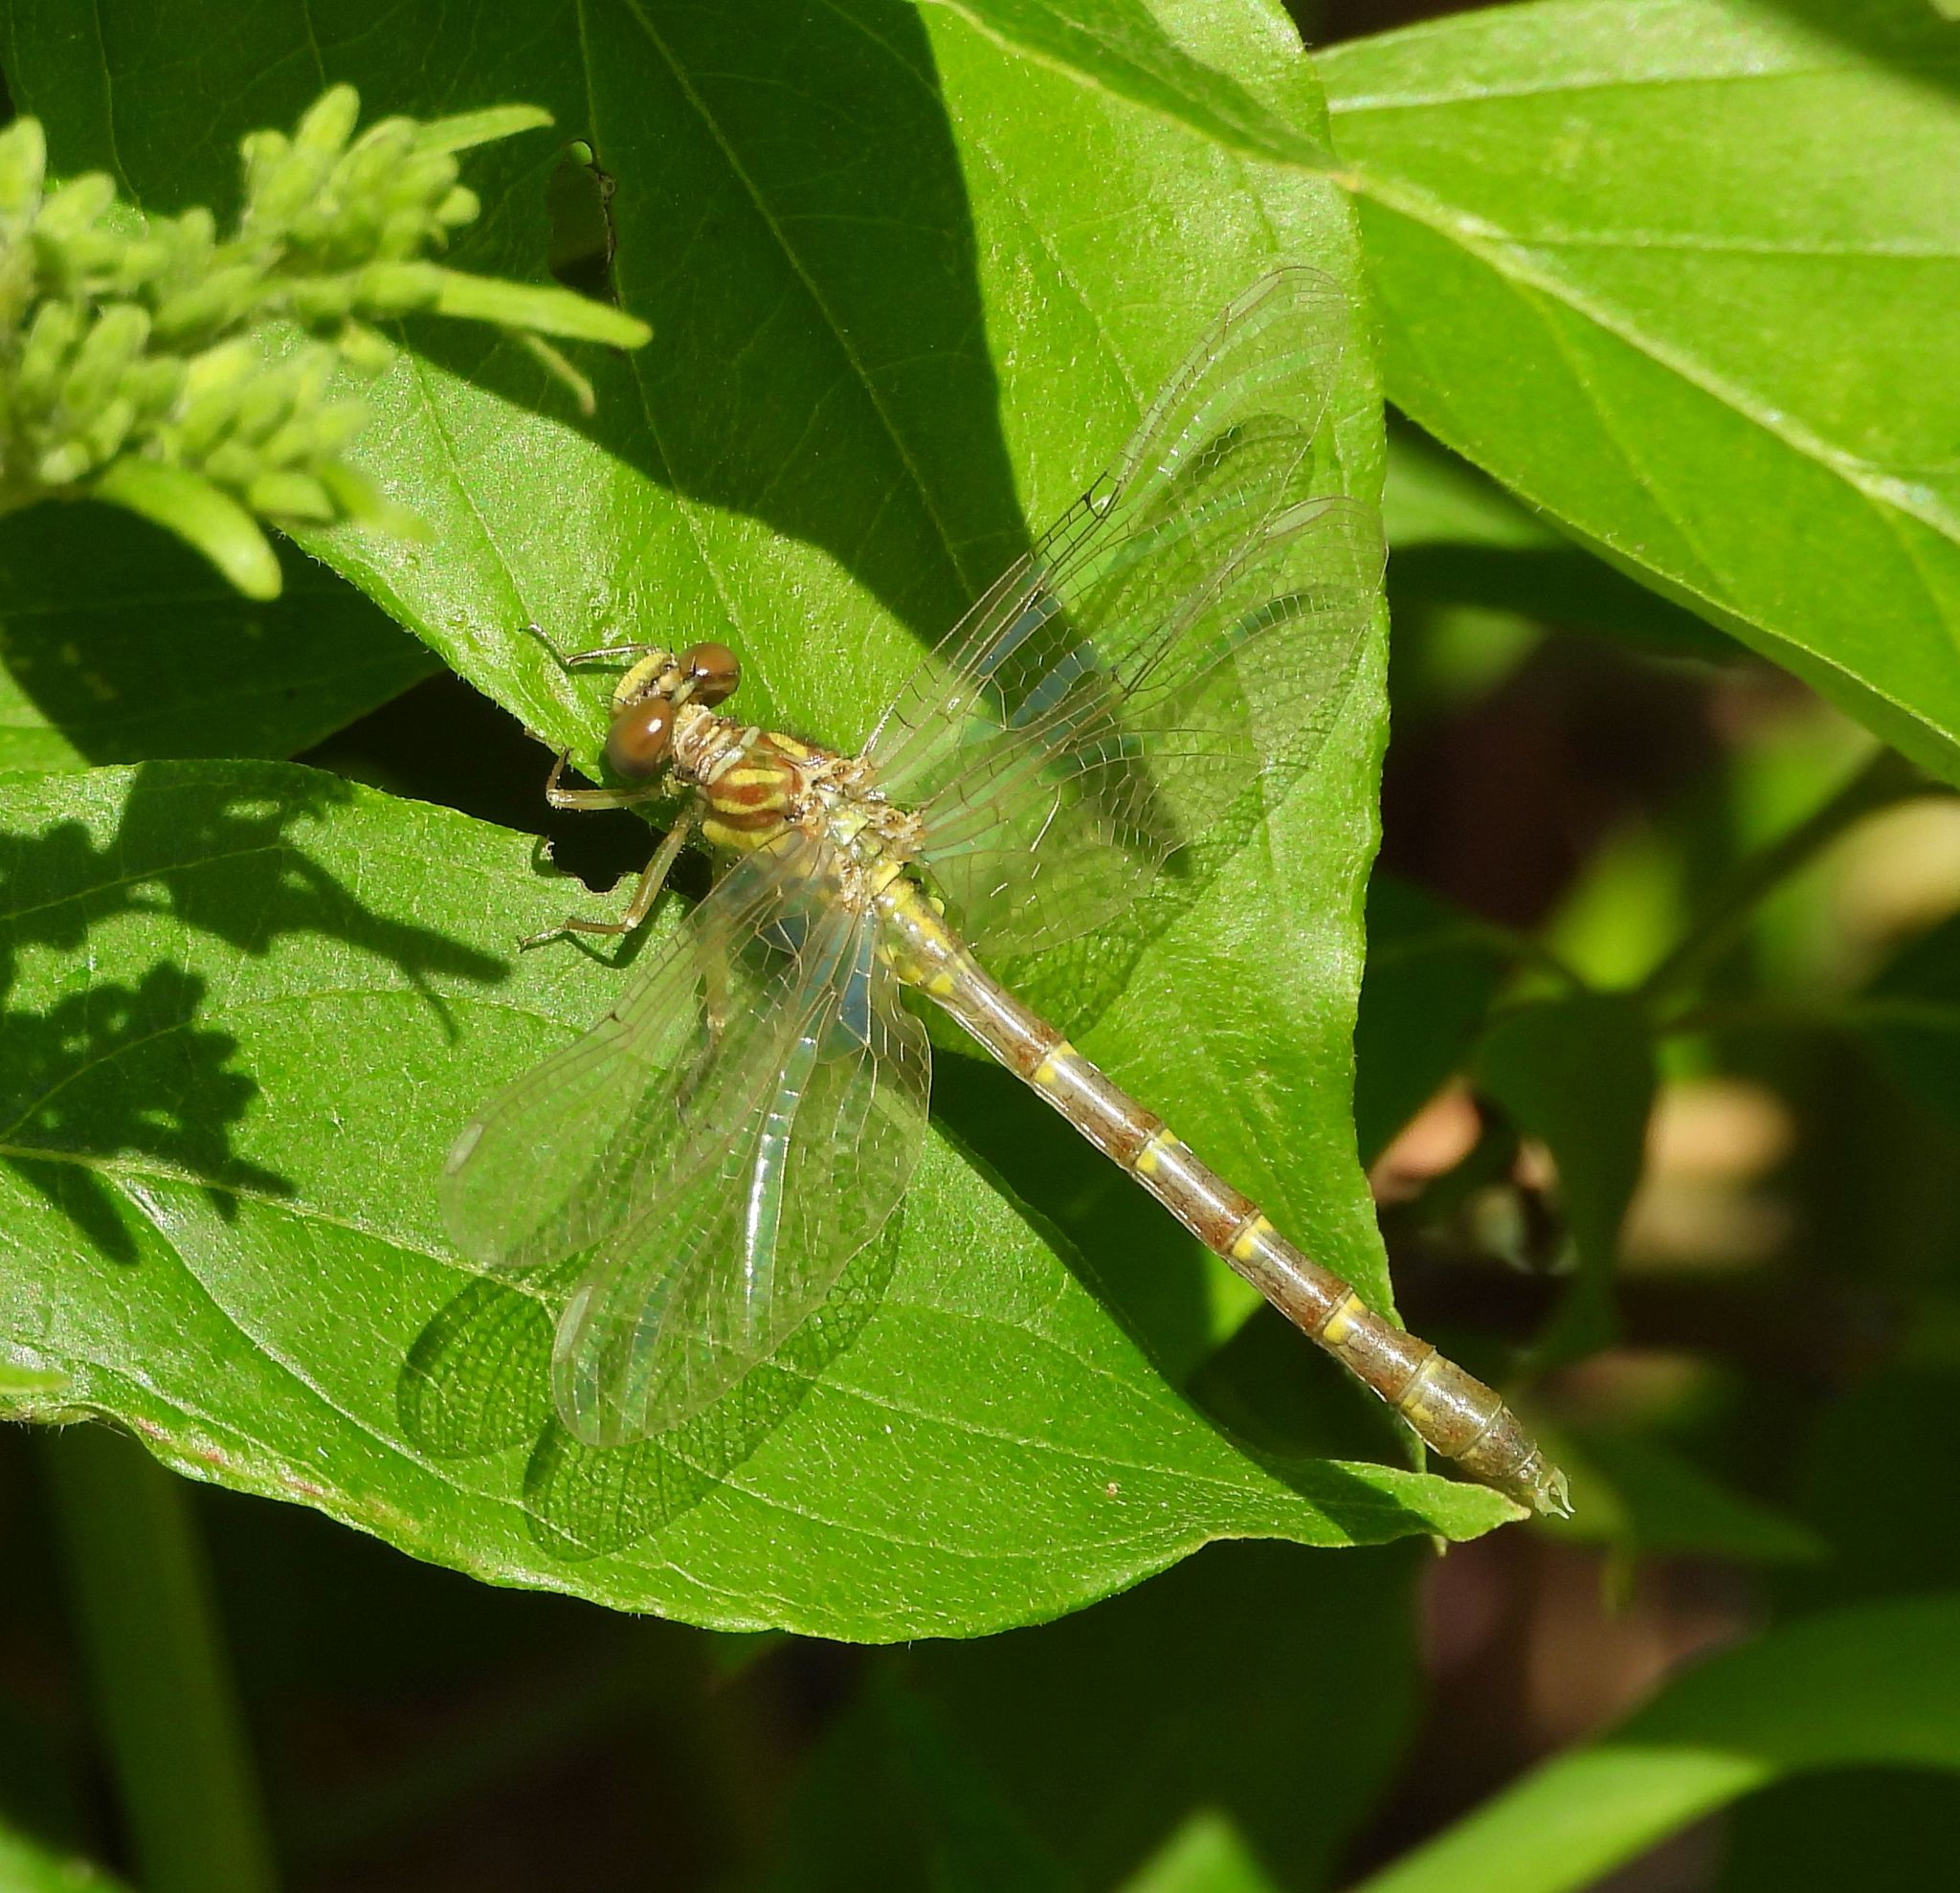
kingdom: Animalia
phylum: Arthropoda
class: Insecta
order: Odonata
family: Gomphidae
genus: Stylogomphus
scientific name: Stylogomphus albistylus
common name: Eastern least clubtail
